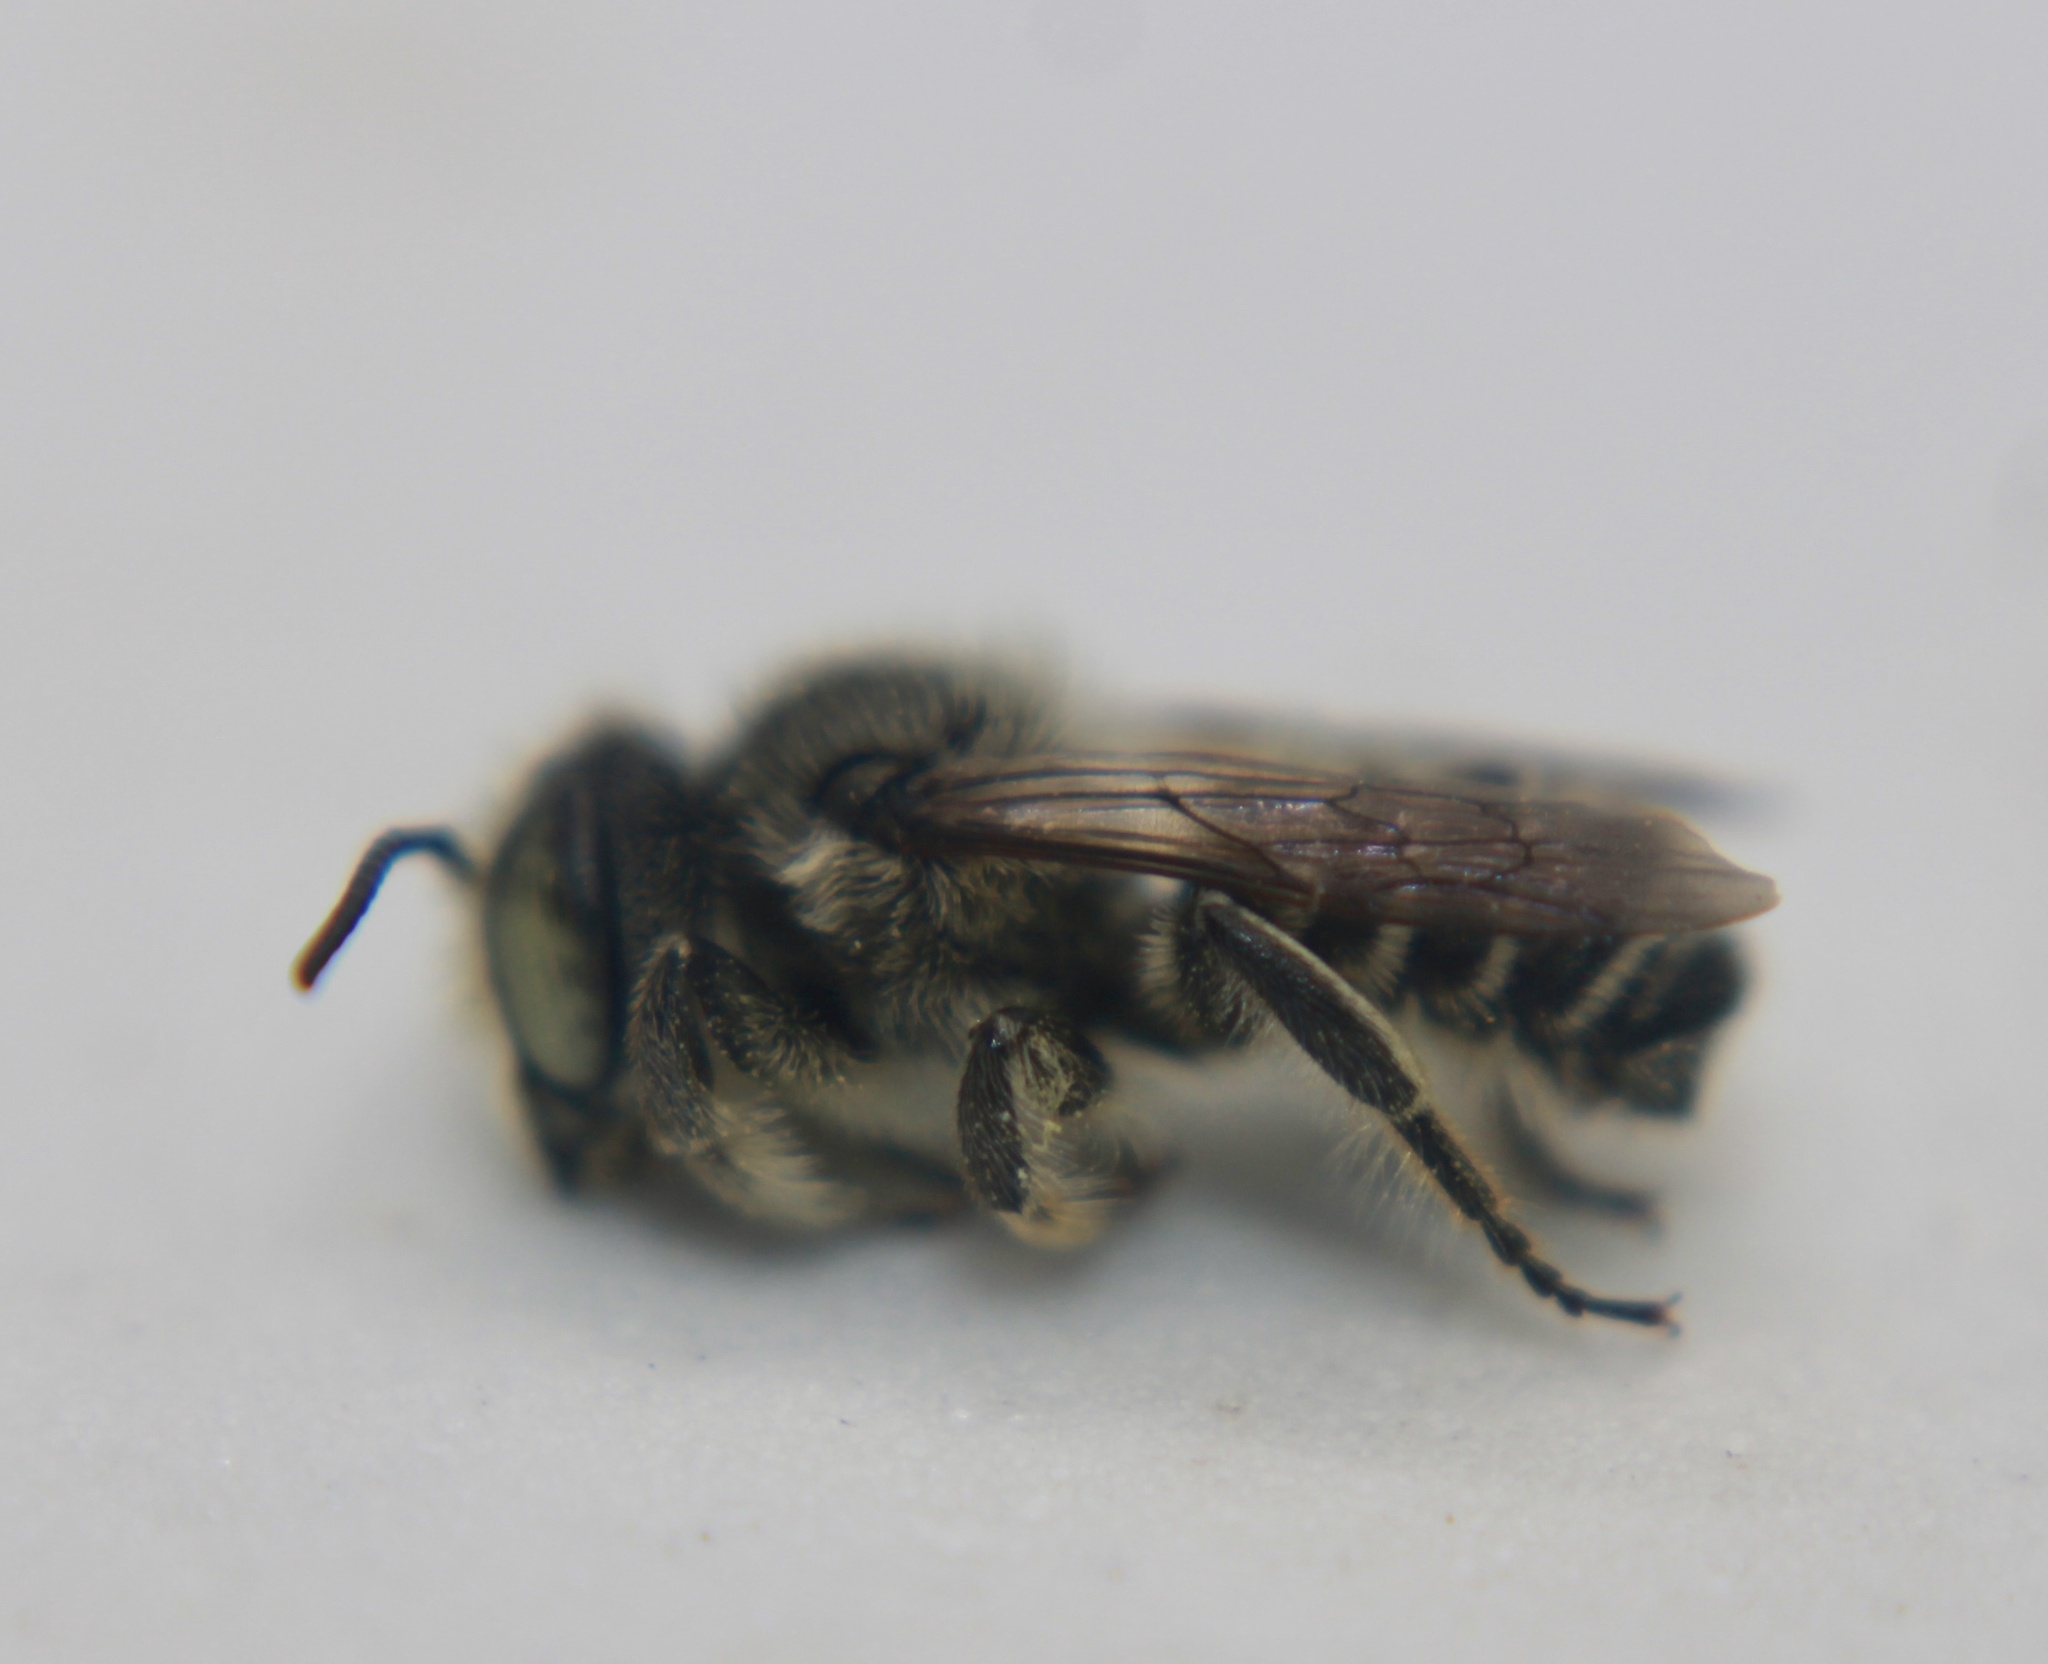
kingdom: Animalia
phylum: Arthropoda
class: Insecta
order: Hymenoptera
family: Megachilidae
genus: Megachile
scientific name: Megachile rotundata
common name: Alfalfa leafcutting bee
